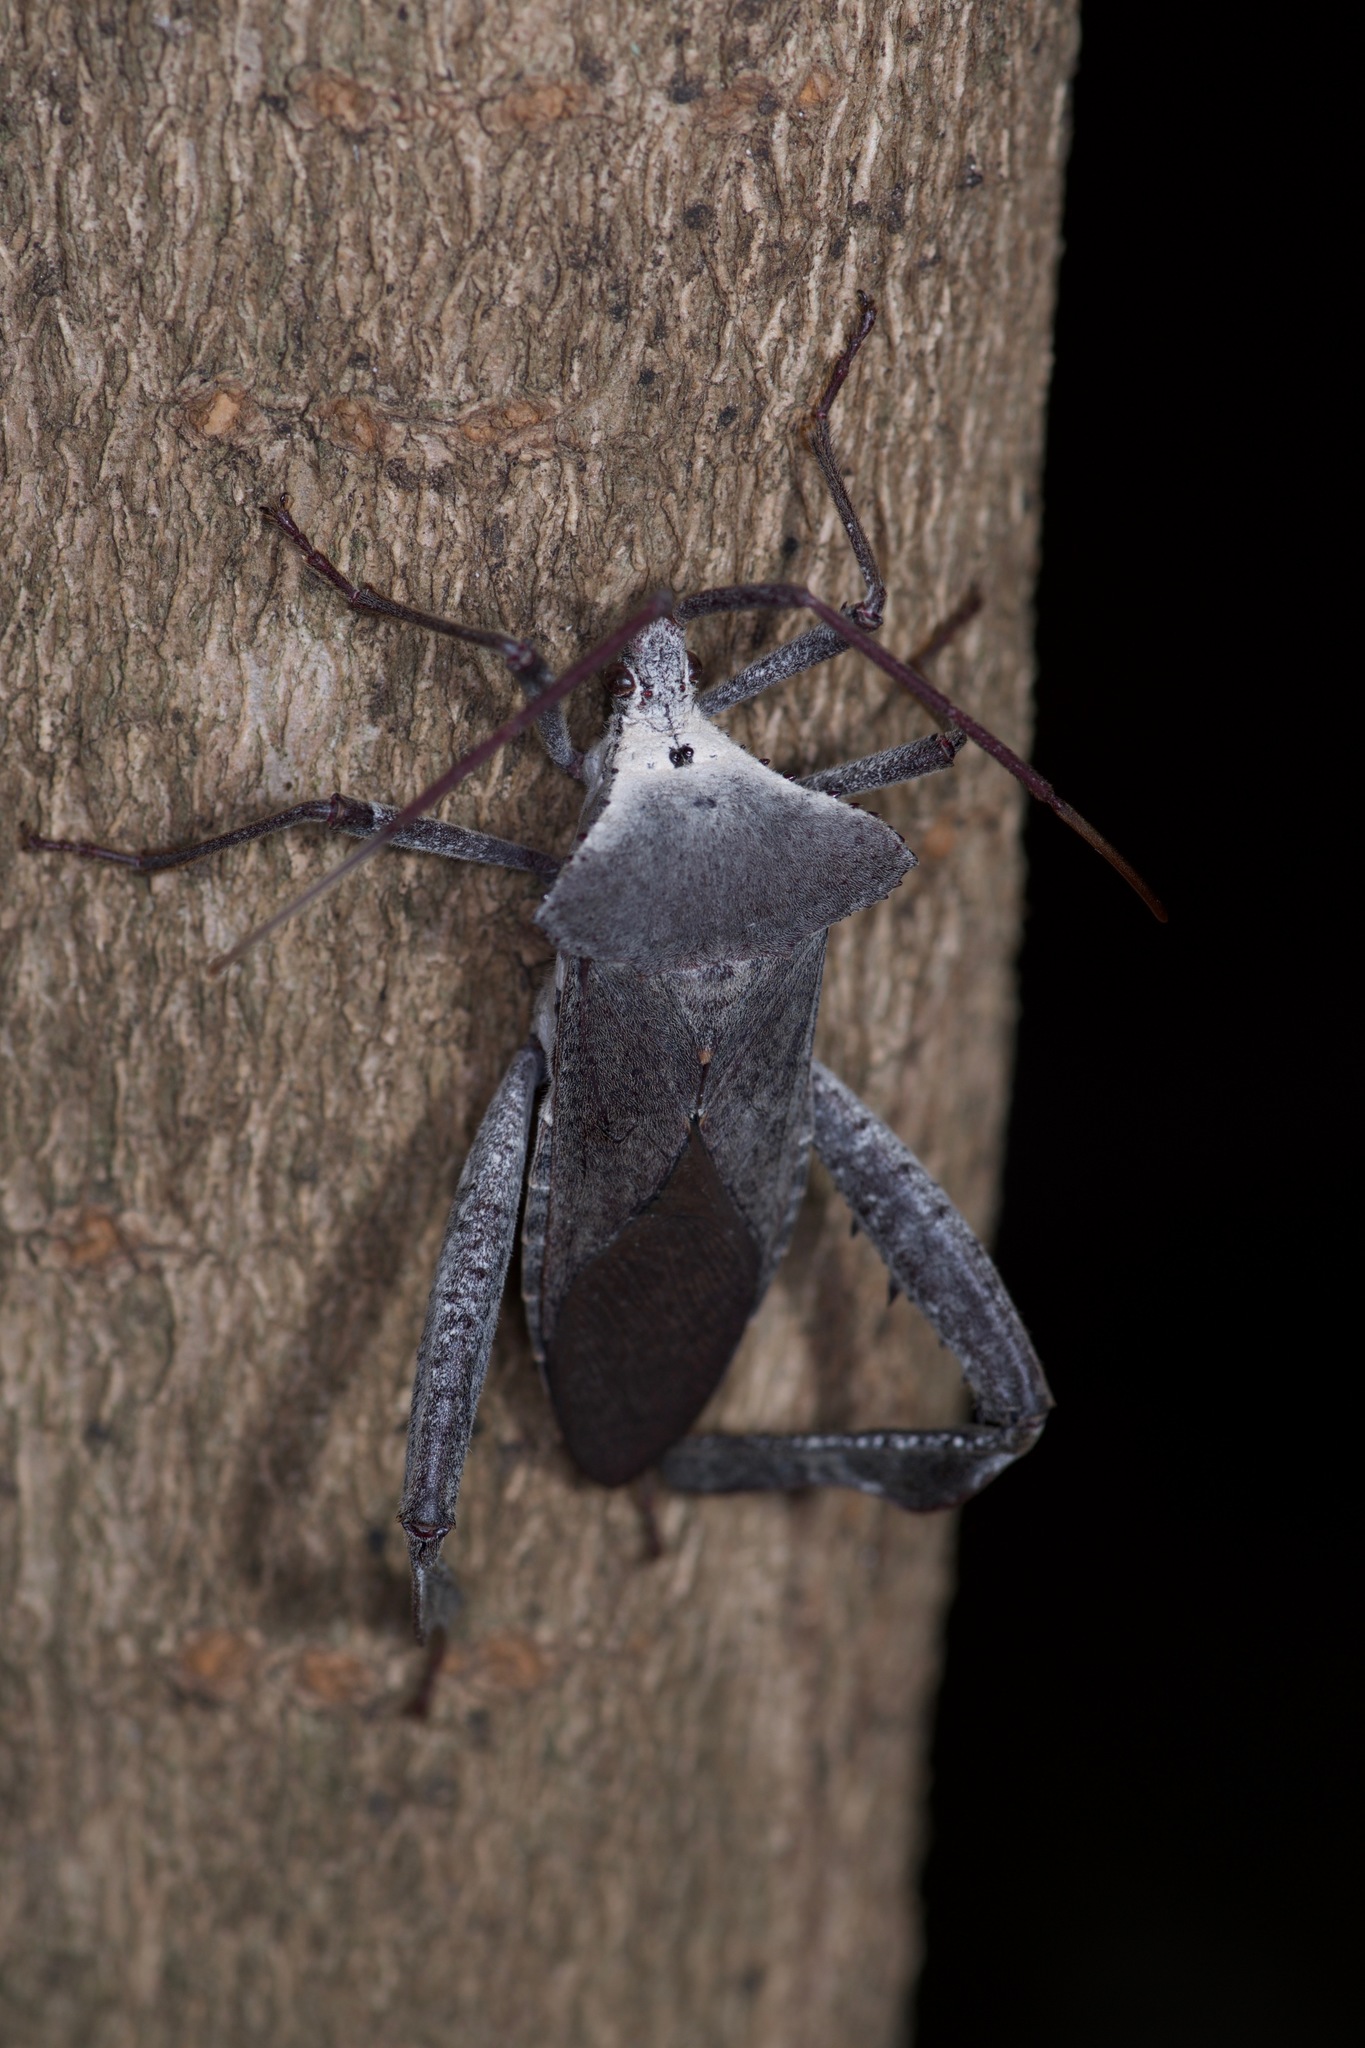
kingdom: Animalia
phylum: Arthropoda
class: Insecta
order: Hemiptera
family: Coreidae
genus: Acanthocephala
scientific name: Acanthocephala declivis
